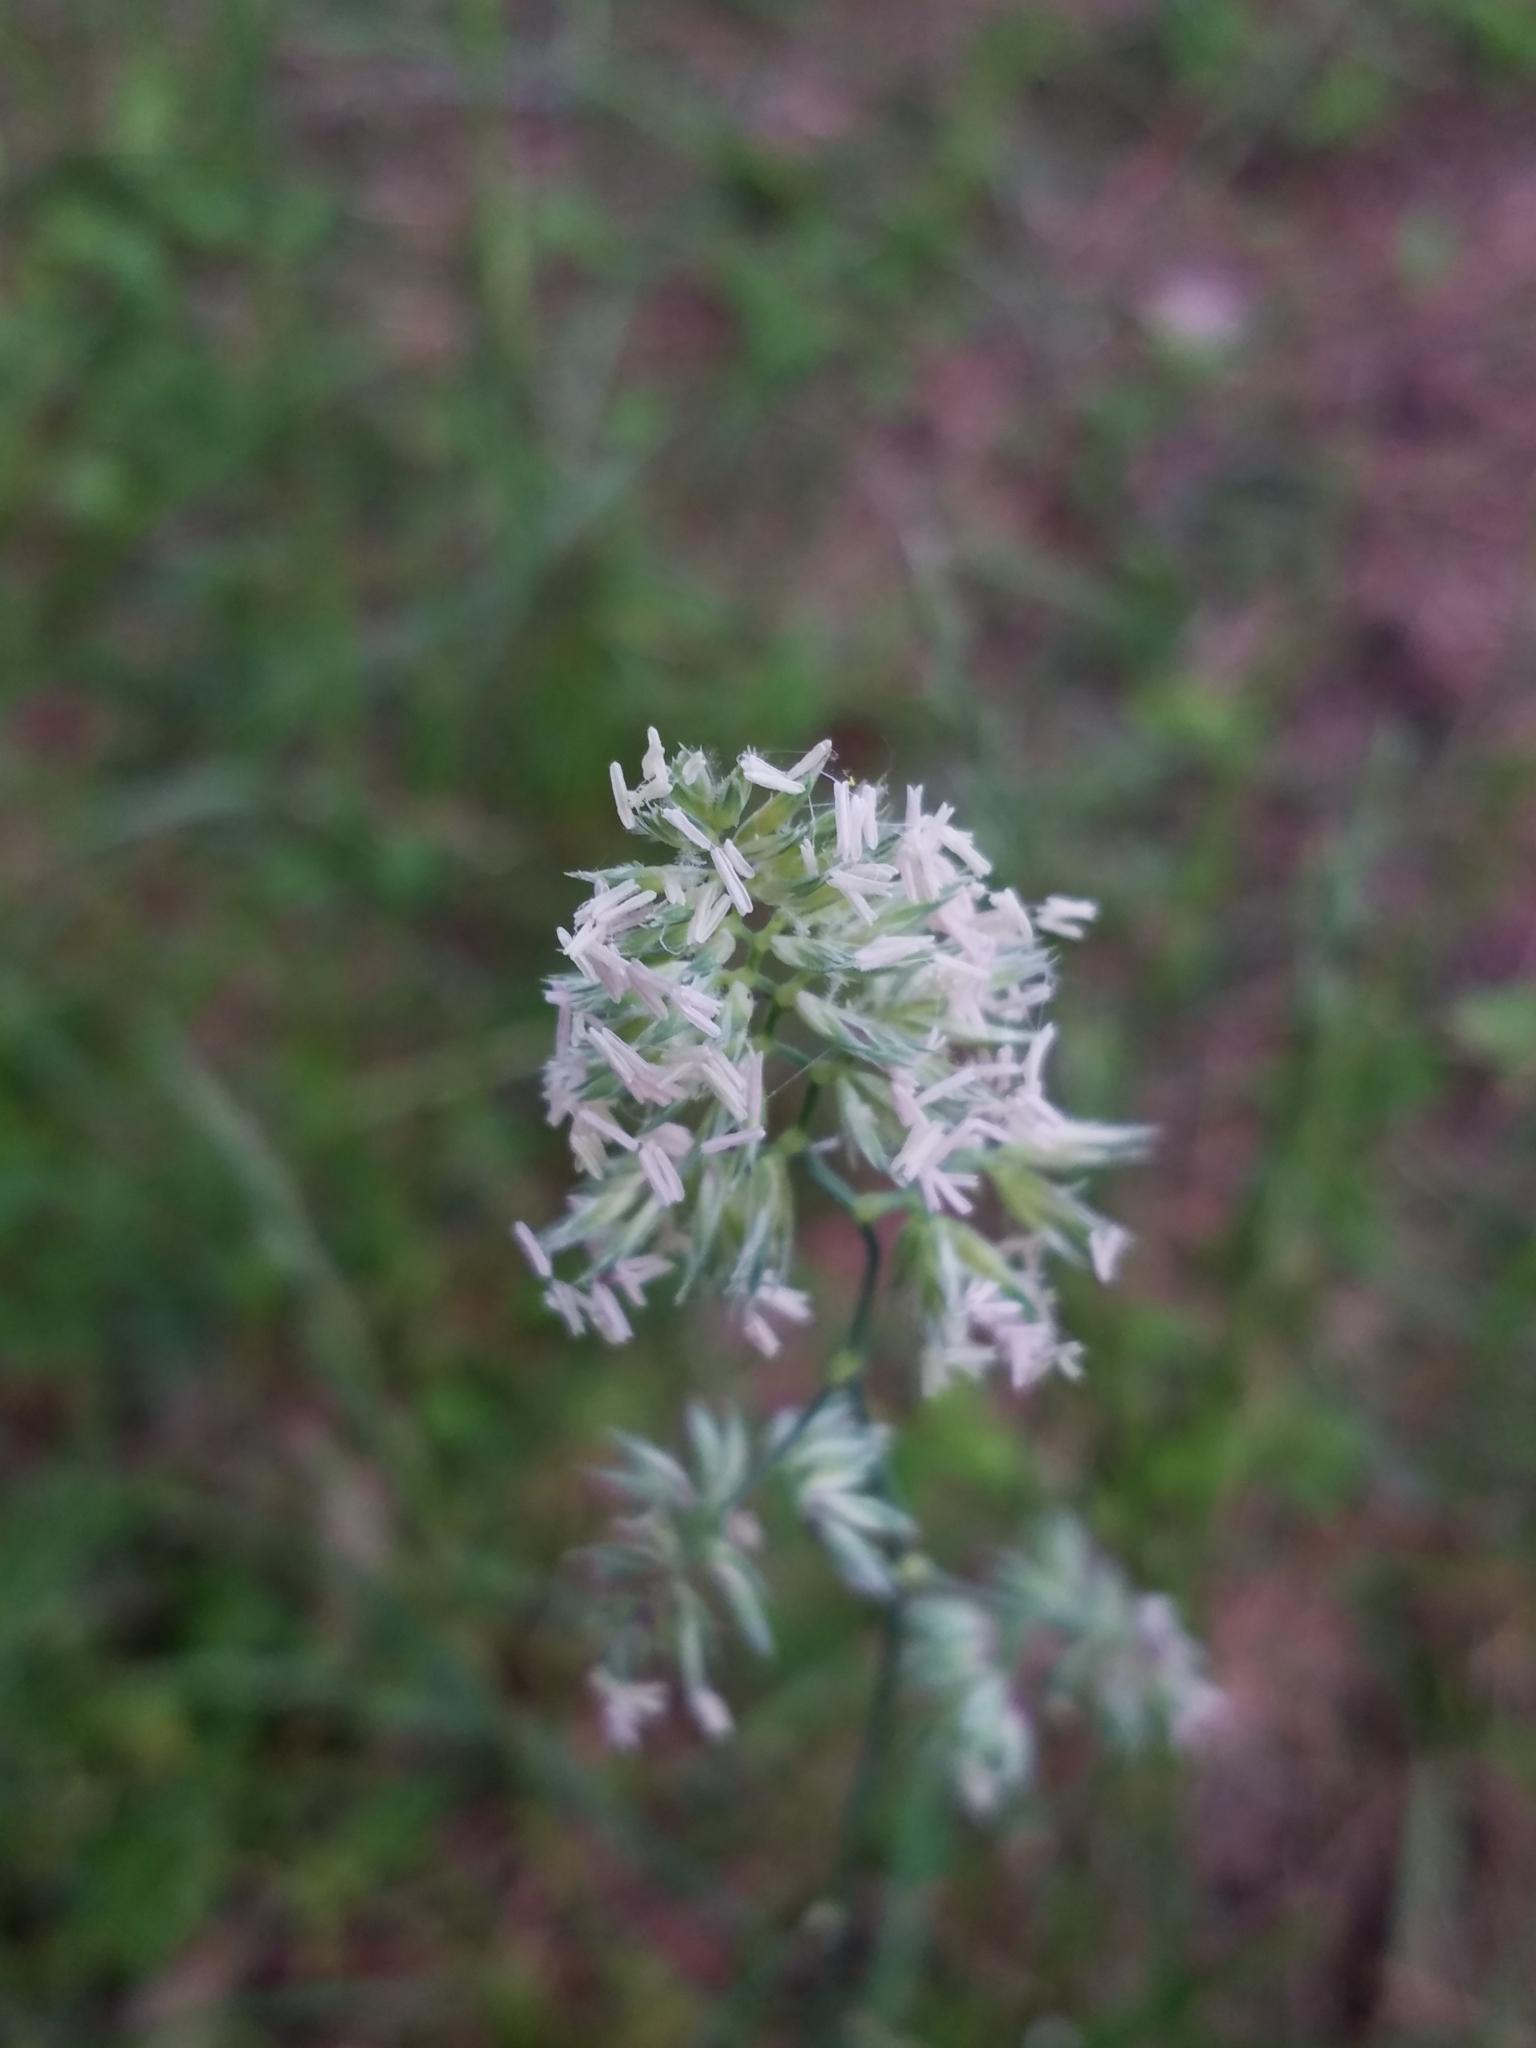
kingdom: Plantae
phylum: Tracheophyta
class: Liliopsida
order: Poales
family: Poaceae
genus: Dactylis
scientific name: Dactylis glomerata
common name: Orchardgrass
